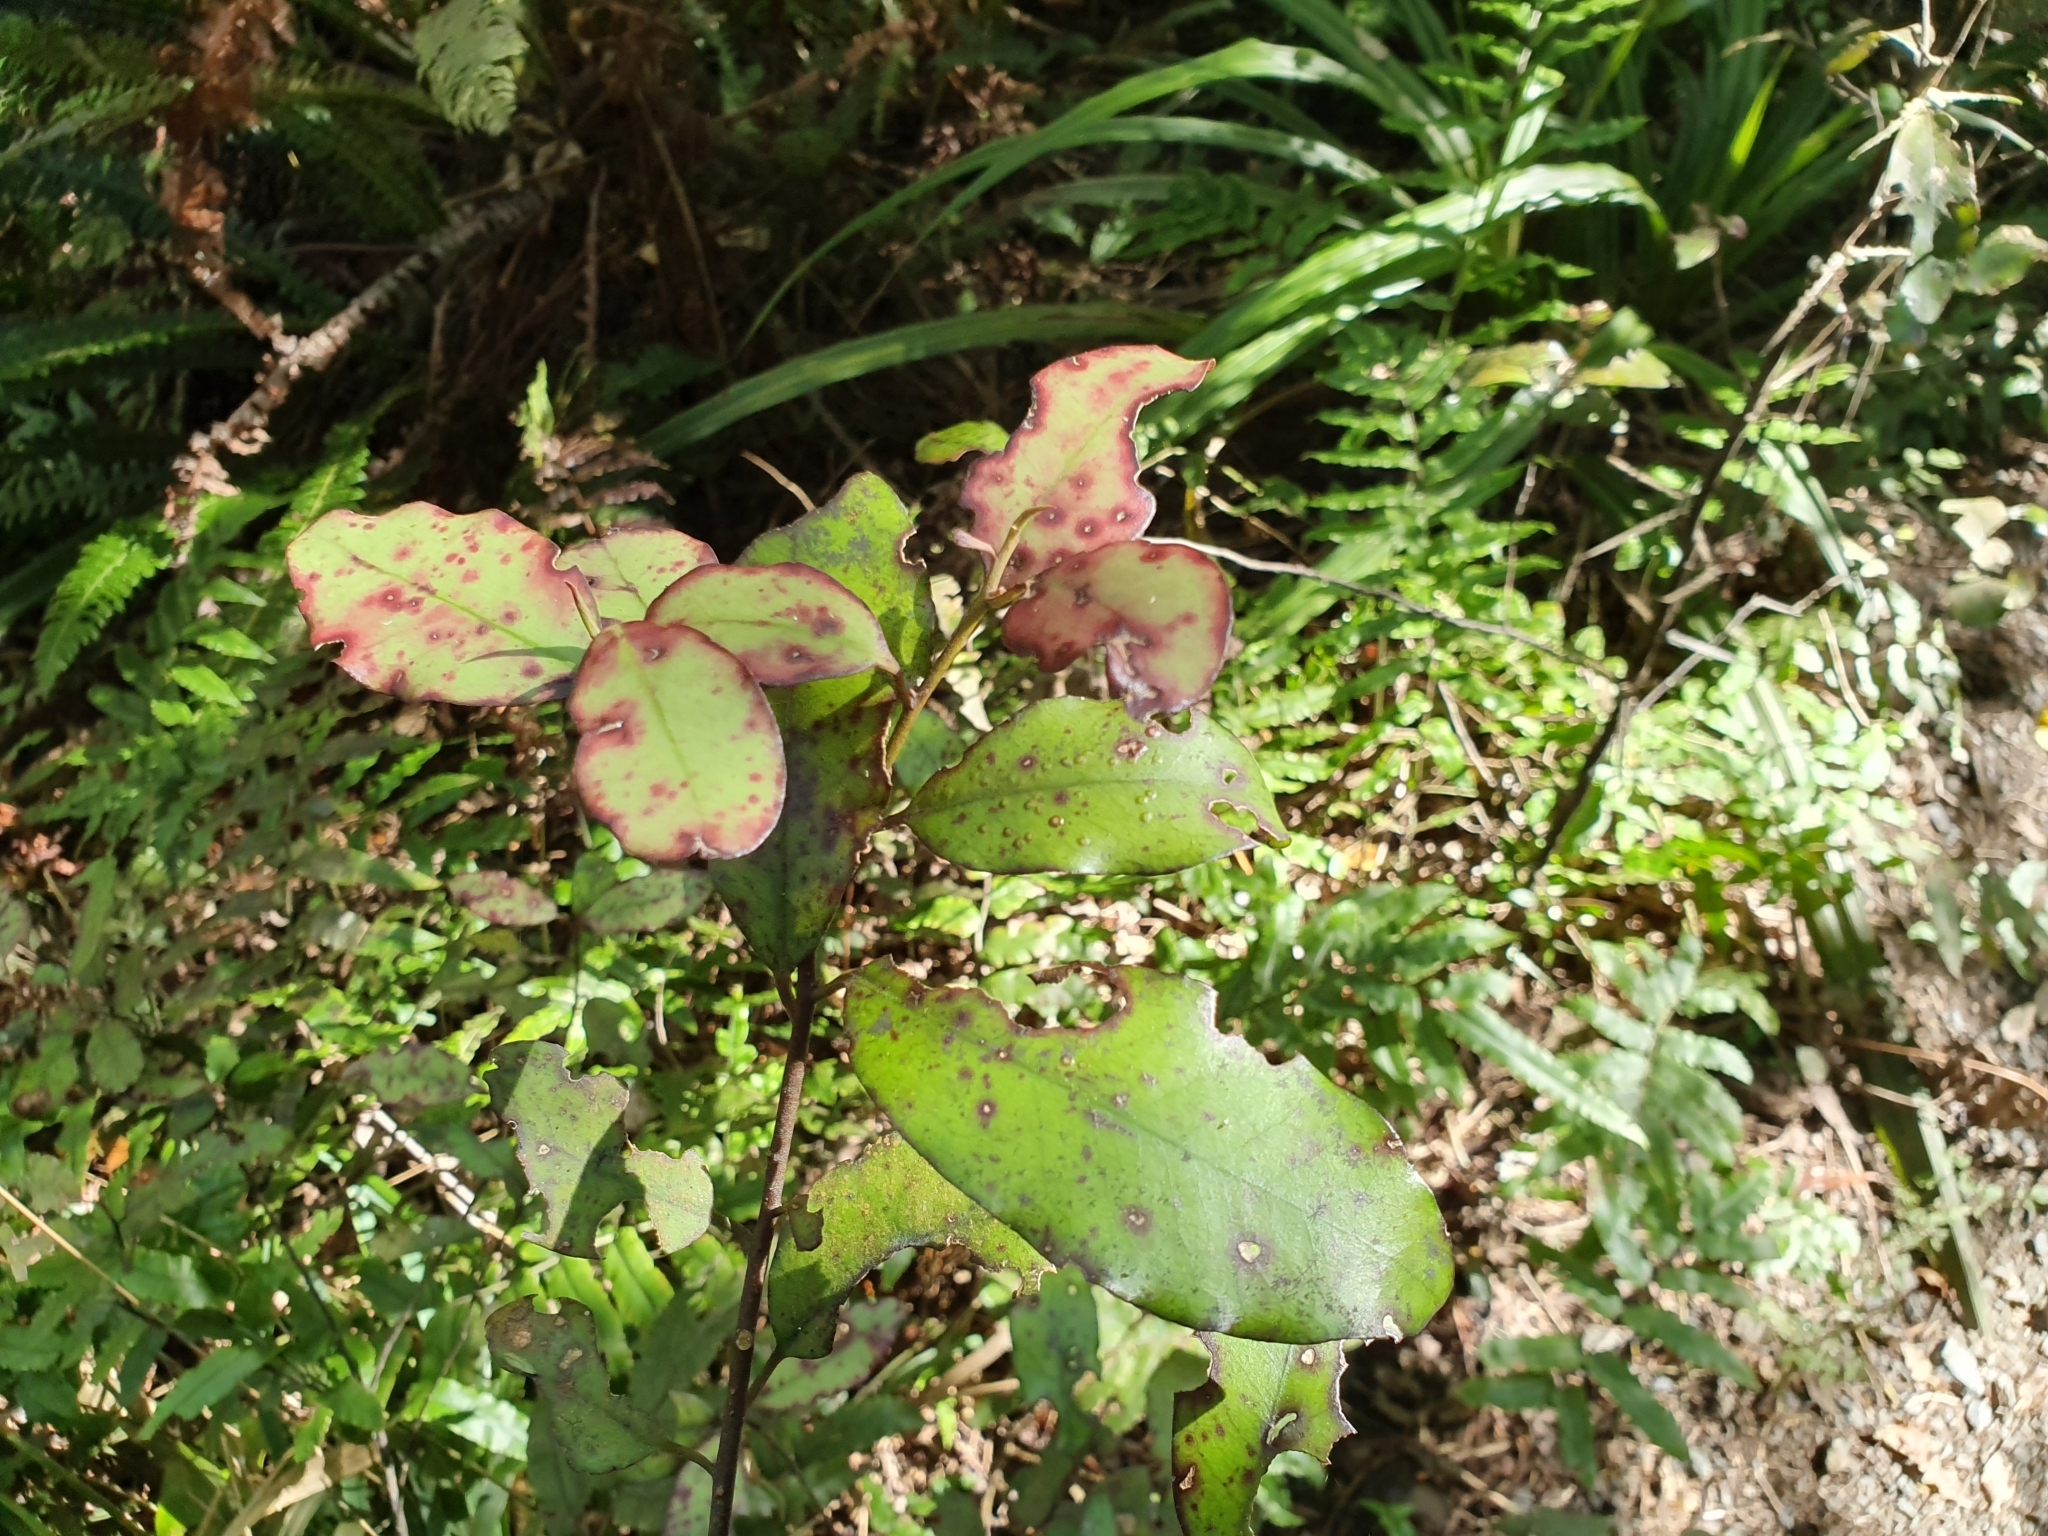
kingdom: Plantae
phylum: Tracheophyta
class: Magnoliopsida
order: Canellales
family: Winteraceae
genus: Pseudowintera
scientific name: Pseudowintera colorata
